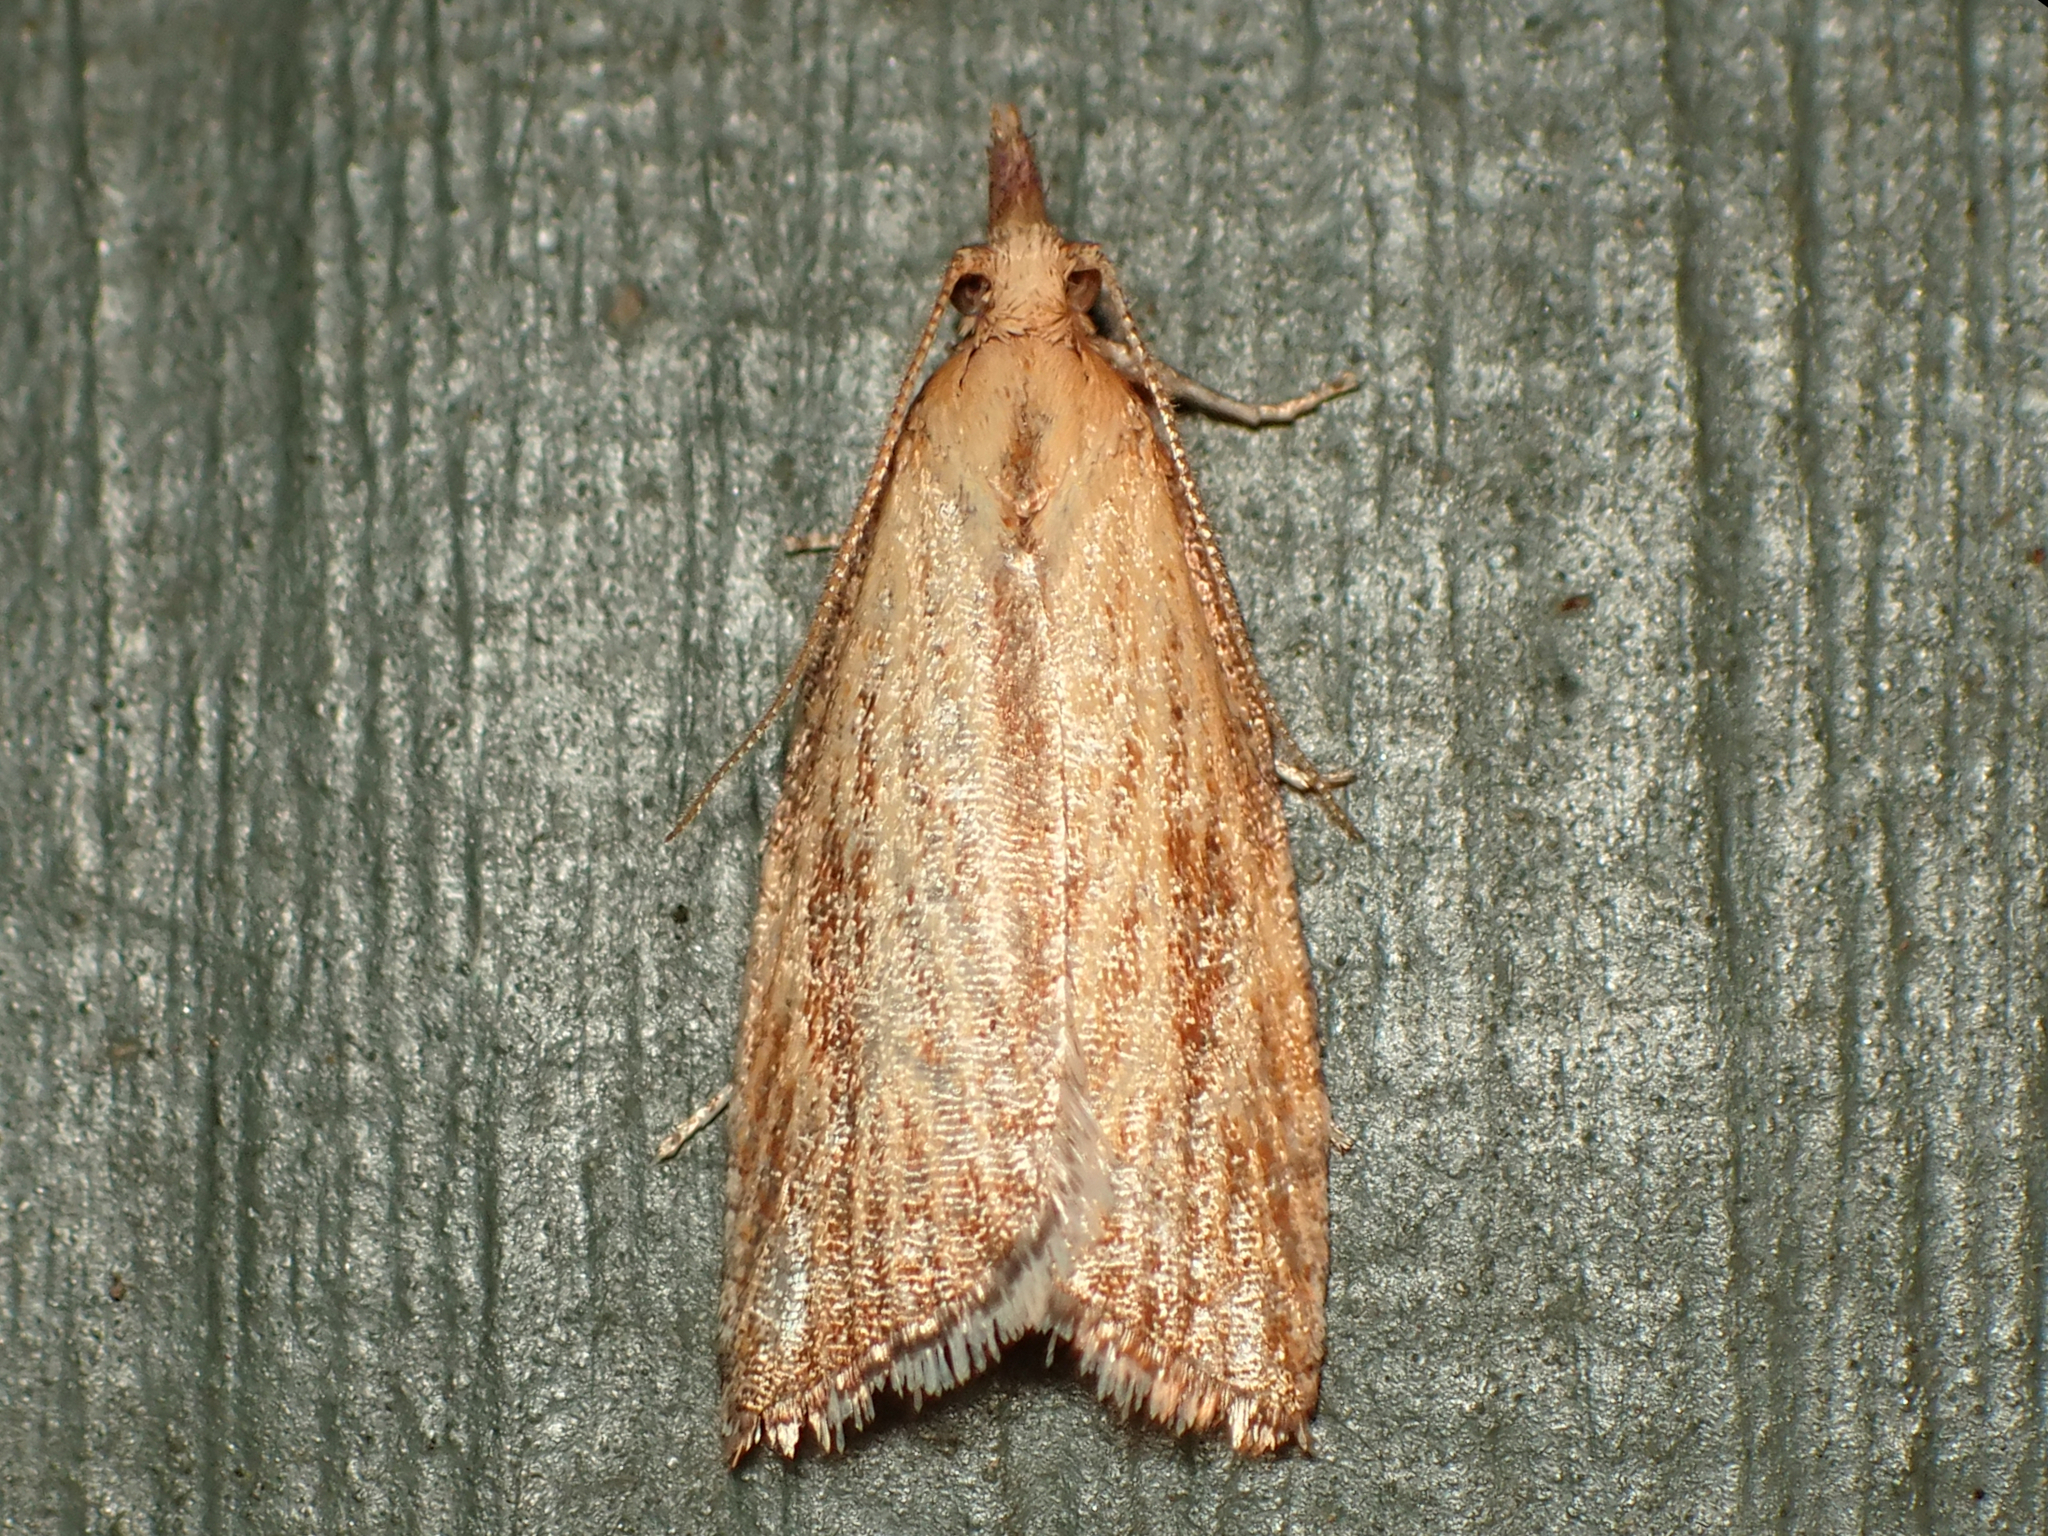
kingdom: Animalia
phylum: Arthropoda
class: Insecta
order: Lepidoptera
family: Tortricidae
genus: Catamacta
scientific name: Catamacta lotinana
